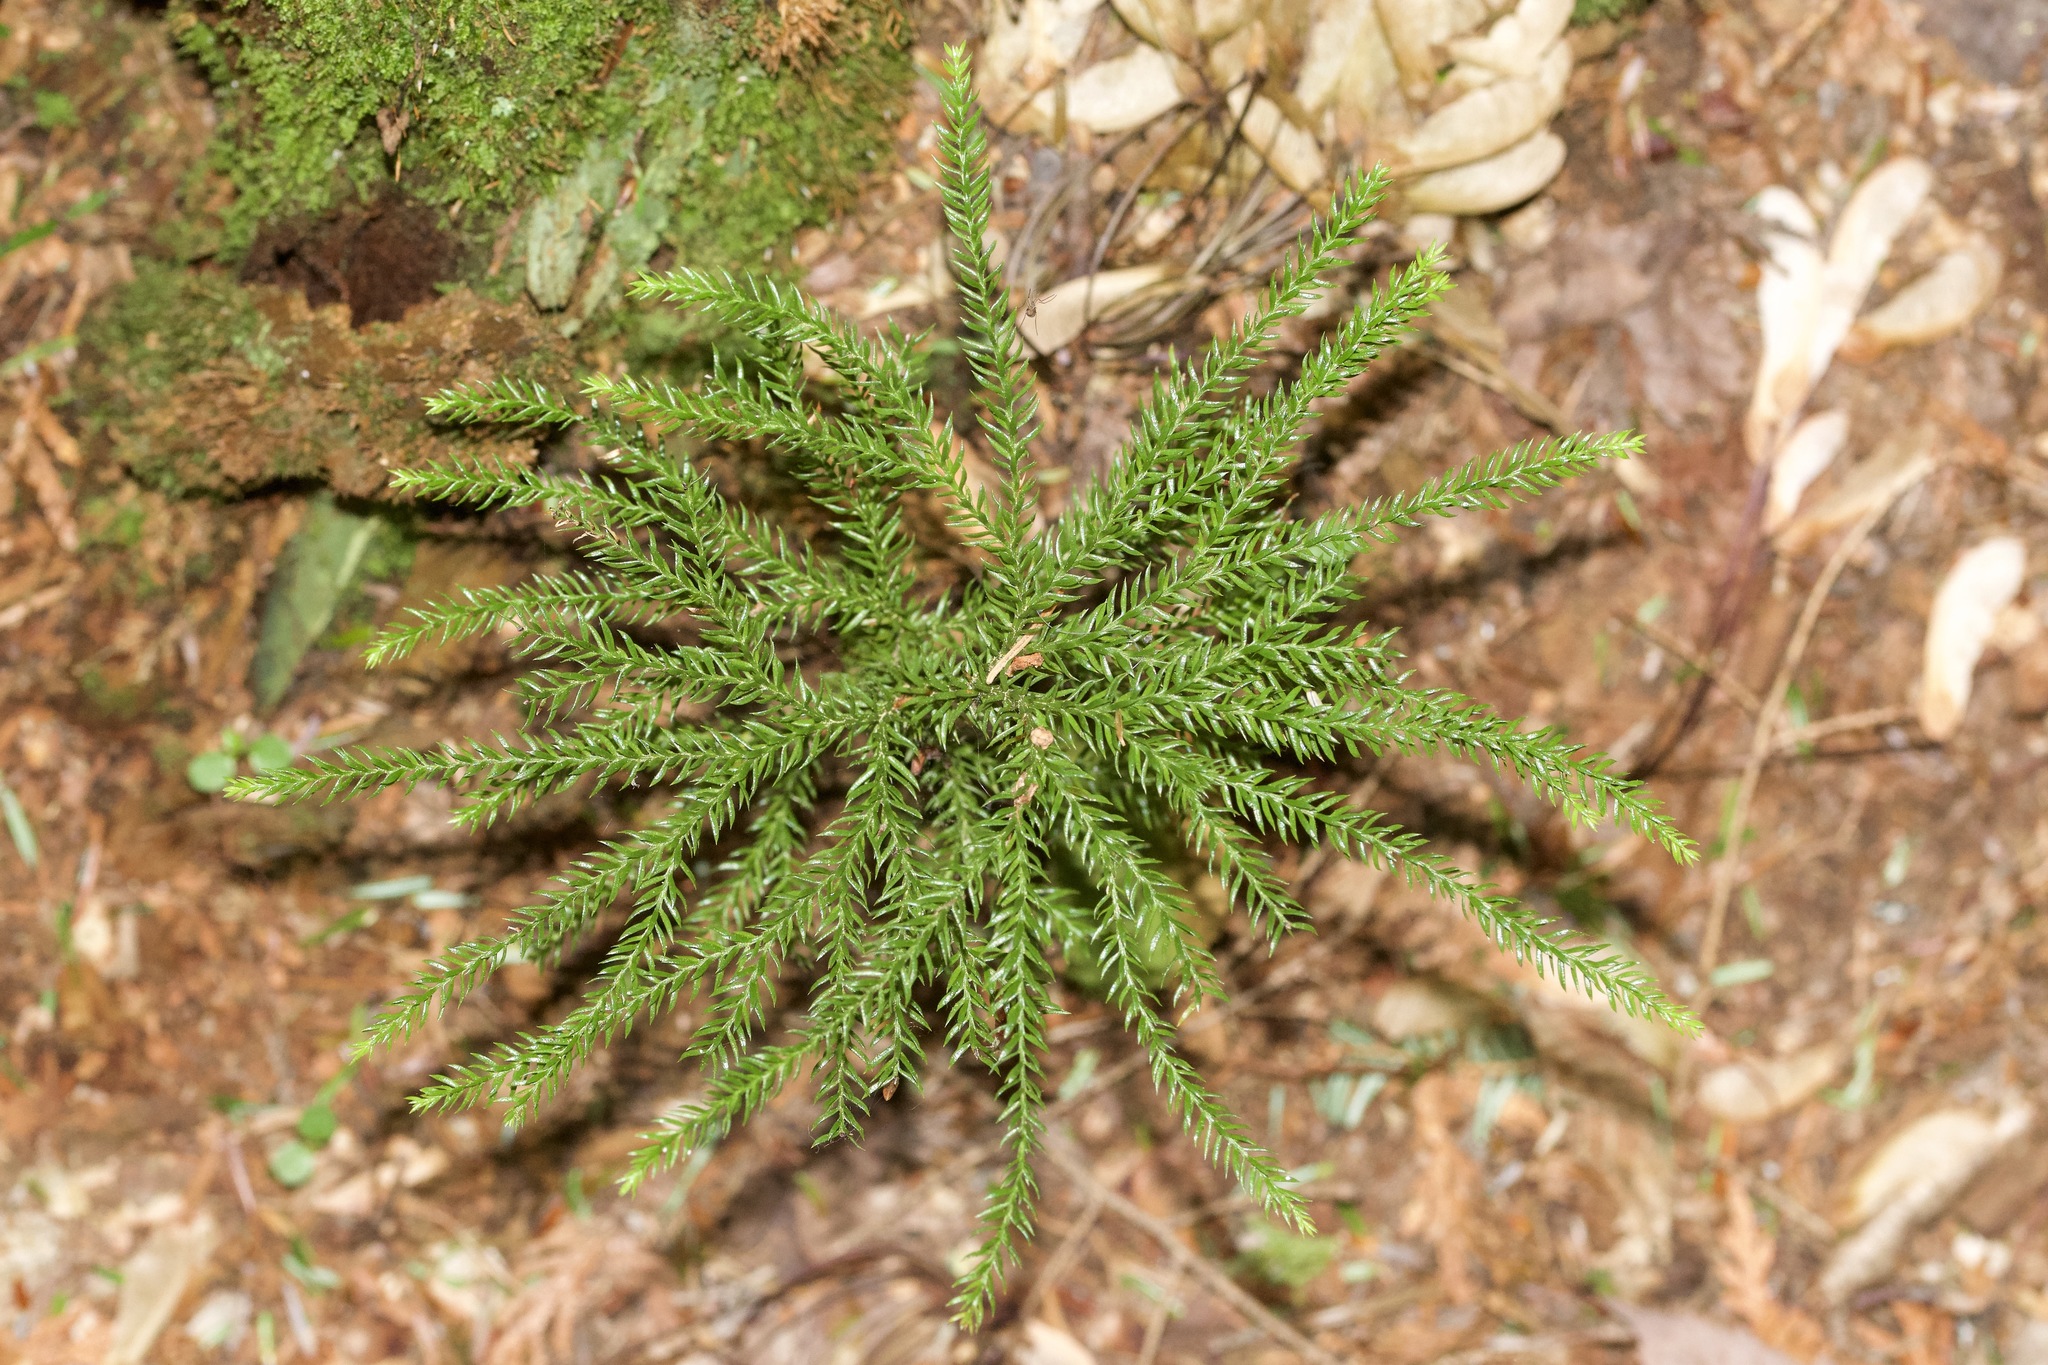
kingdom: Plantae
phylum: Tracheophyta
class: Lycopodiopsida
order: Lycopodiales
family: Lycopodiaceae
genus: Dendrolycopodium
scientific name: Dendrolycopodium dendroideum
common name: Northern tree-clubmoss
